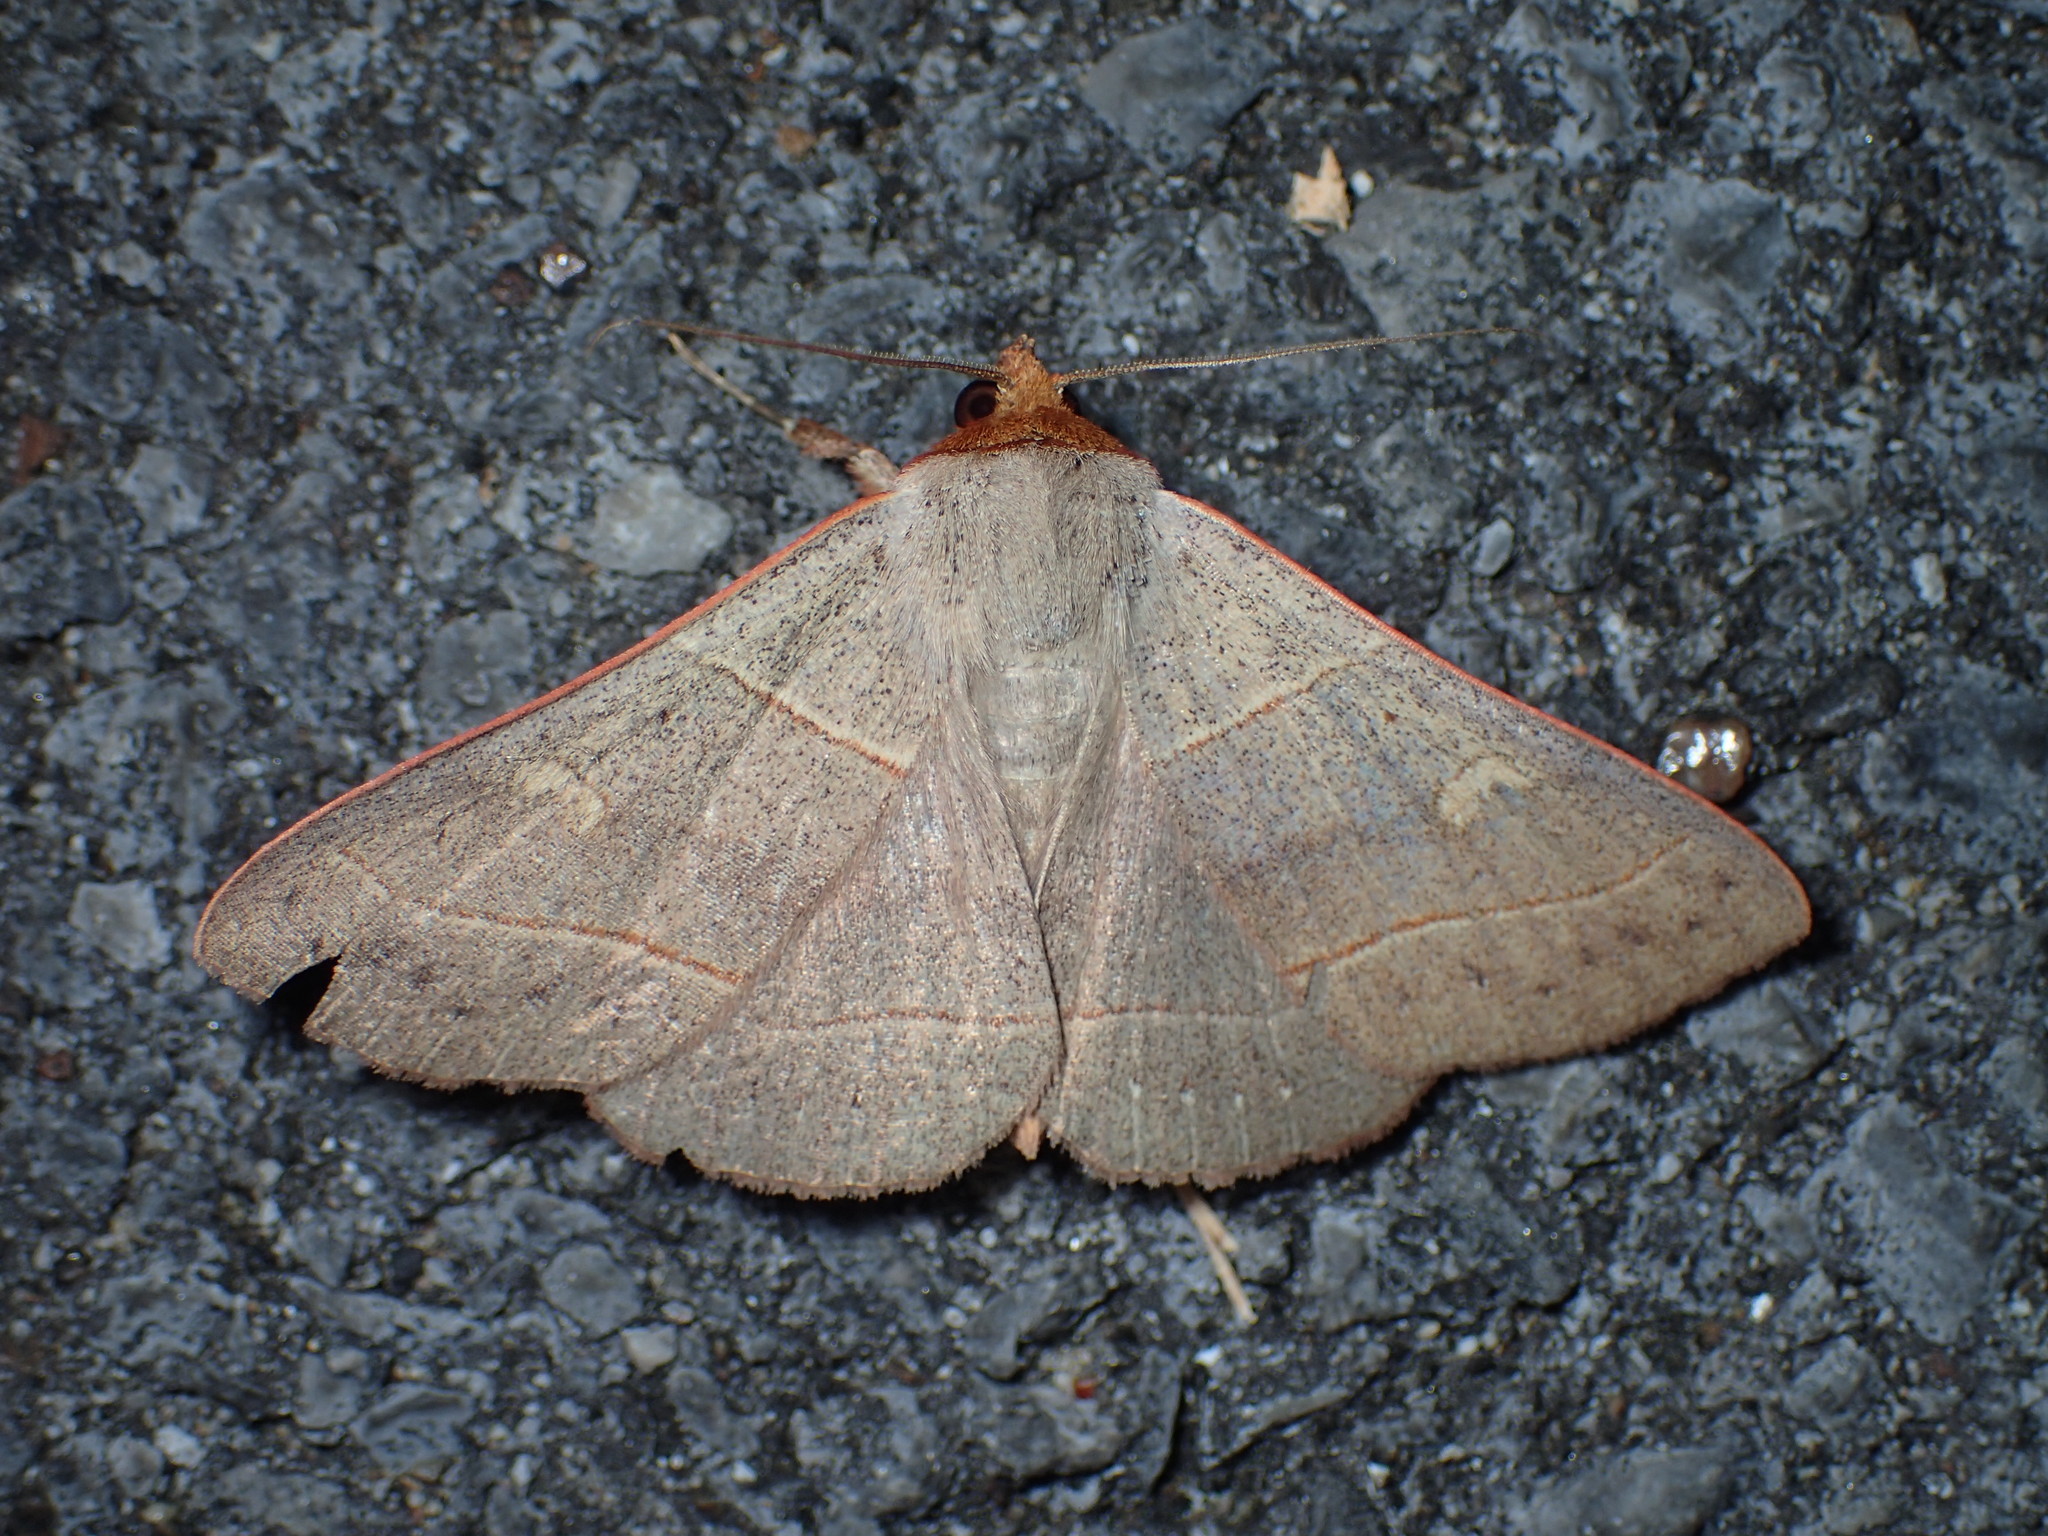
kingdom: Animalia
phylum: Arthropoda
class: Insecta
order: Lepidoptera
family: Erebidae
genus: Panopoda
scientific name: Panopoda rufimargo
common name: Red-lined panopoda moth
